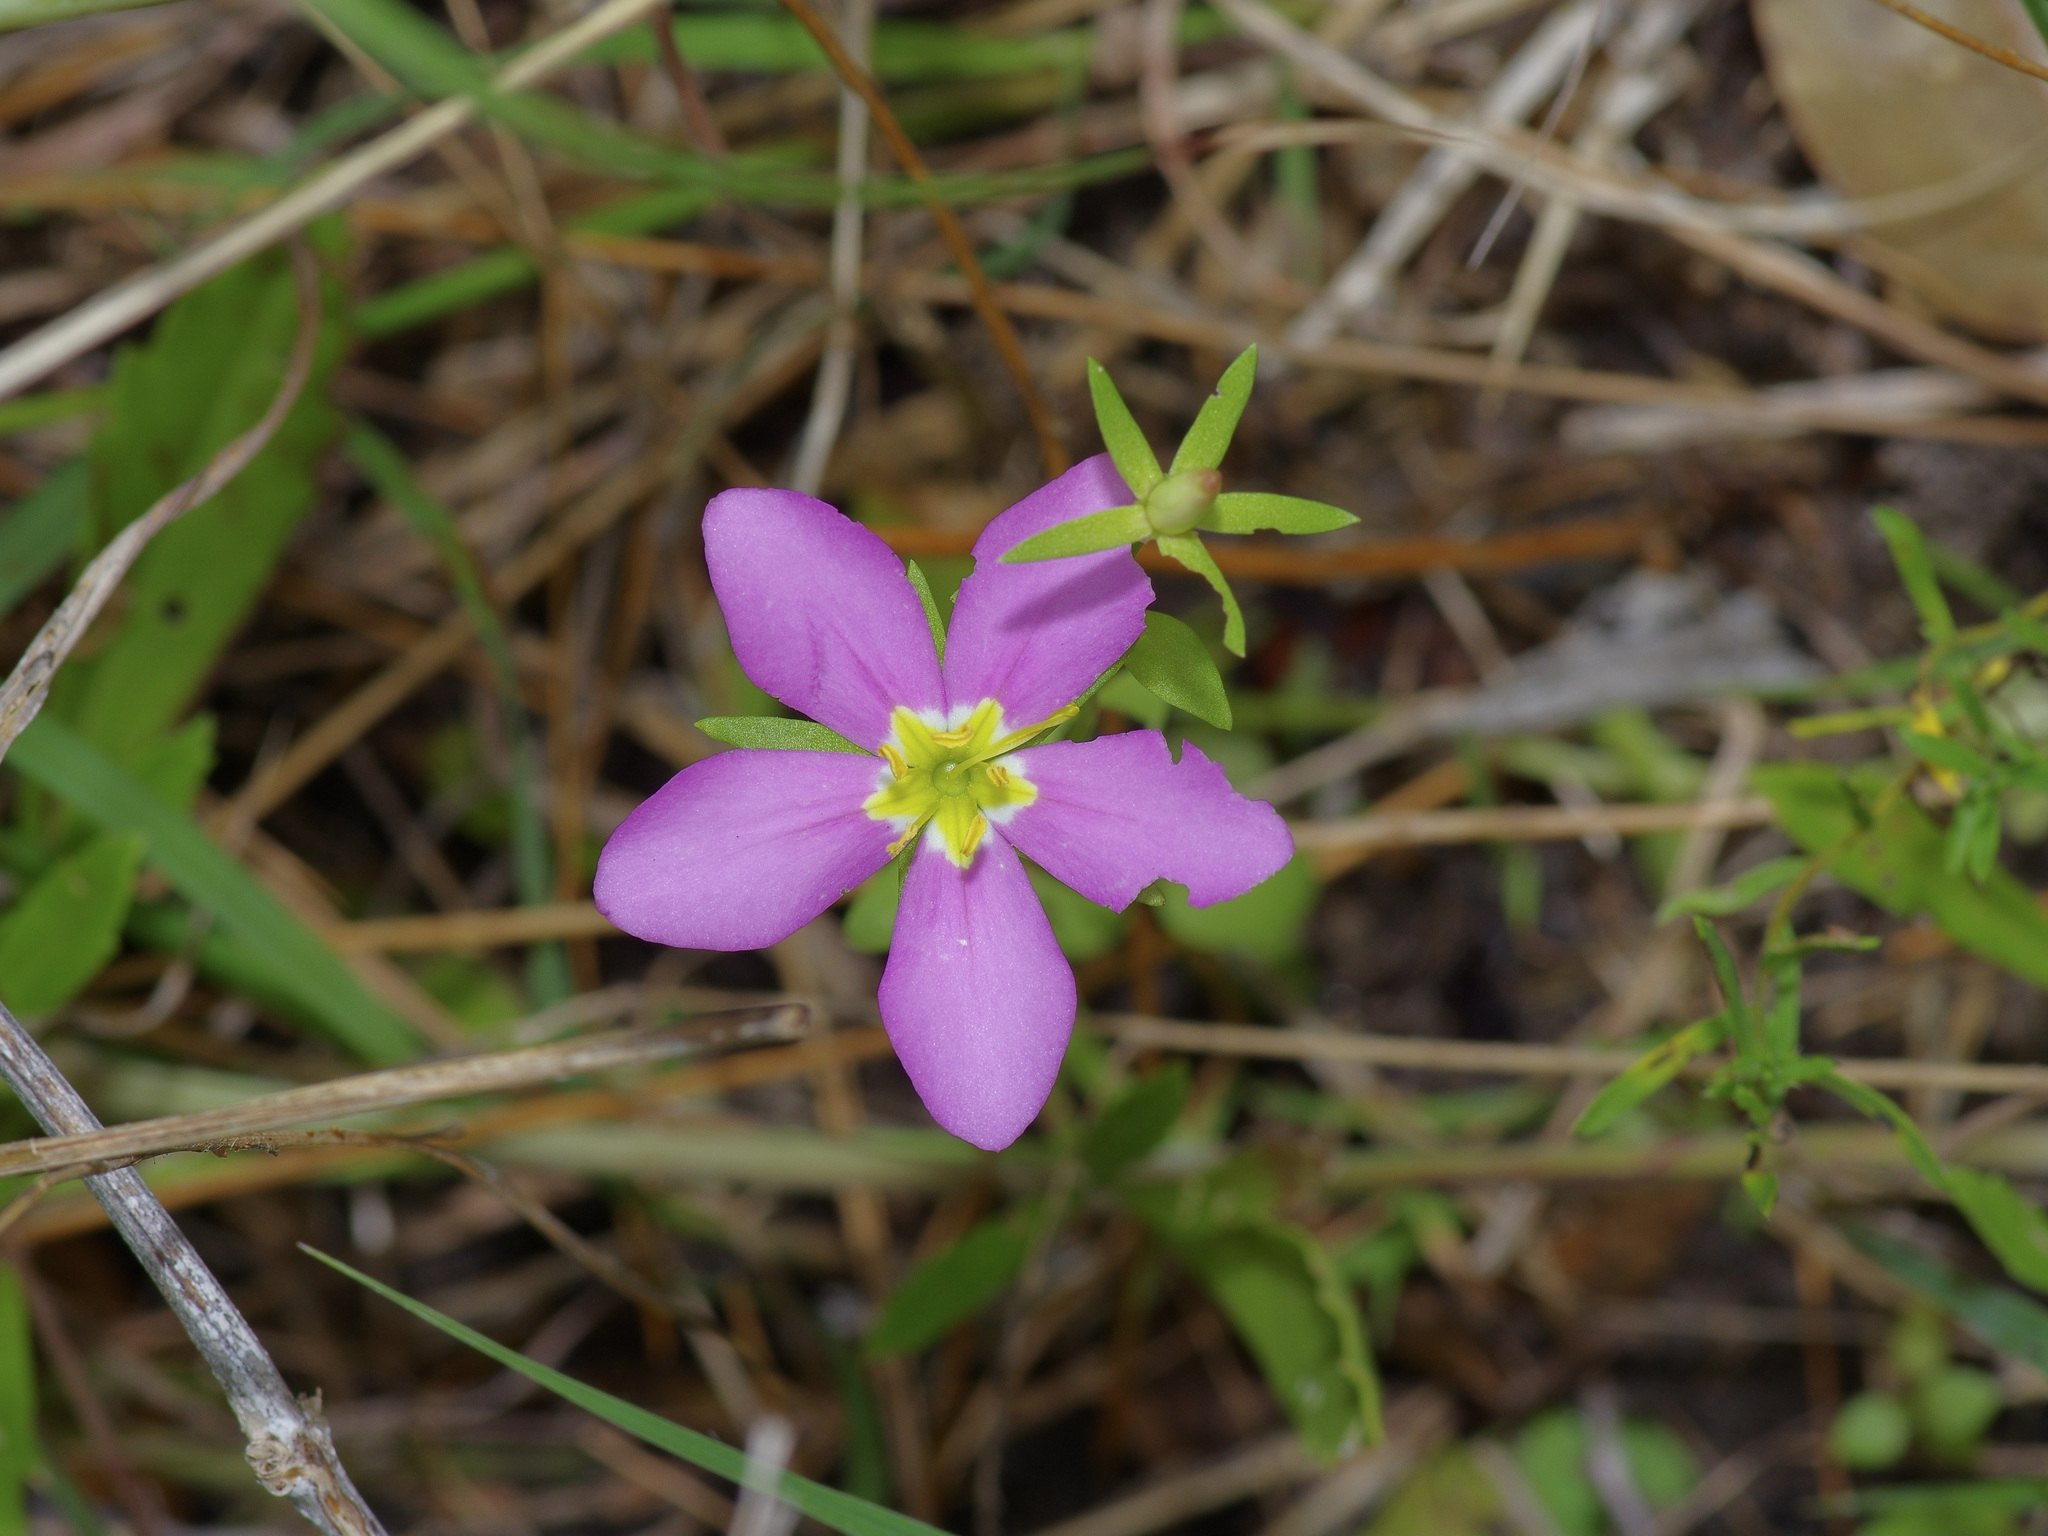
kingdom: Plantae
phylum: Tracheophyta
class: Magnoliopsida
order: Gentianales
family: Gentianaceae
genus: Sabatia
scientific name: Sabatia campestris
